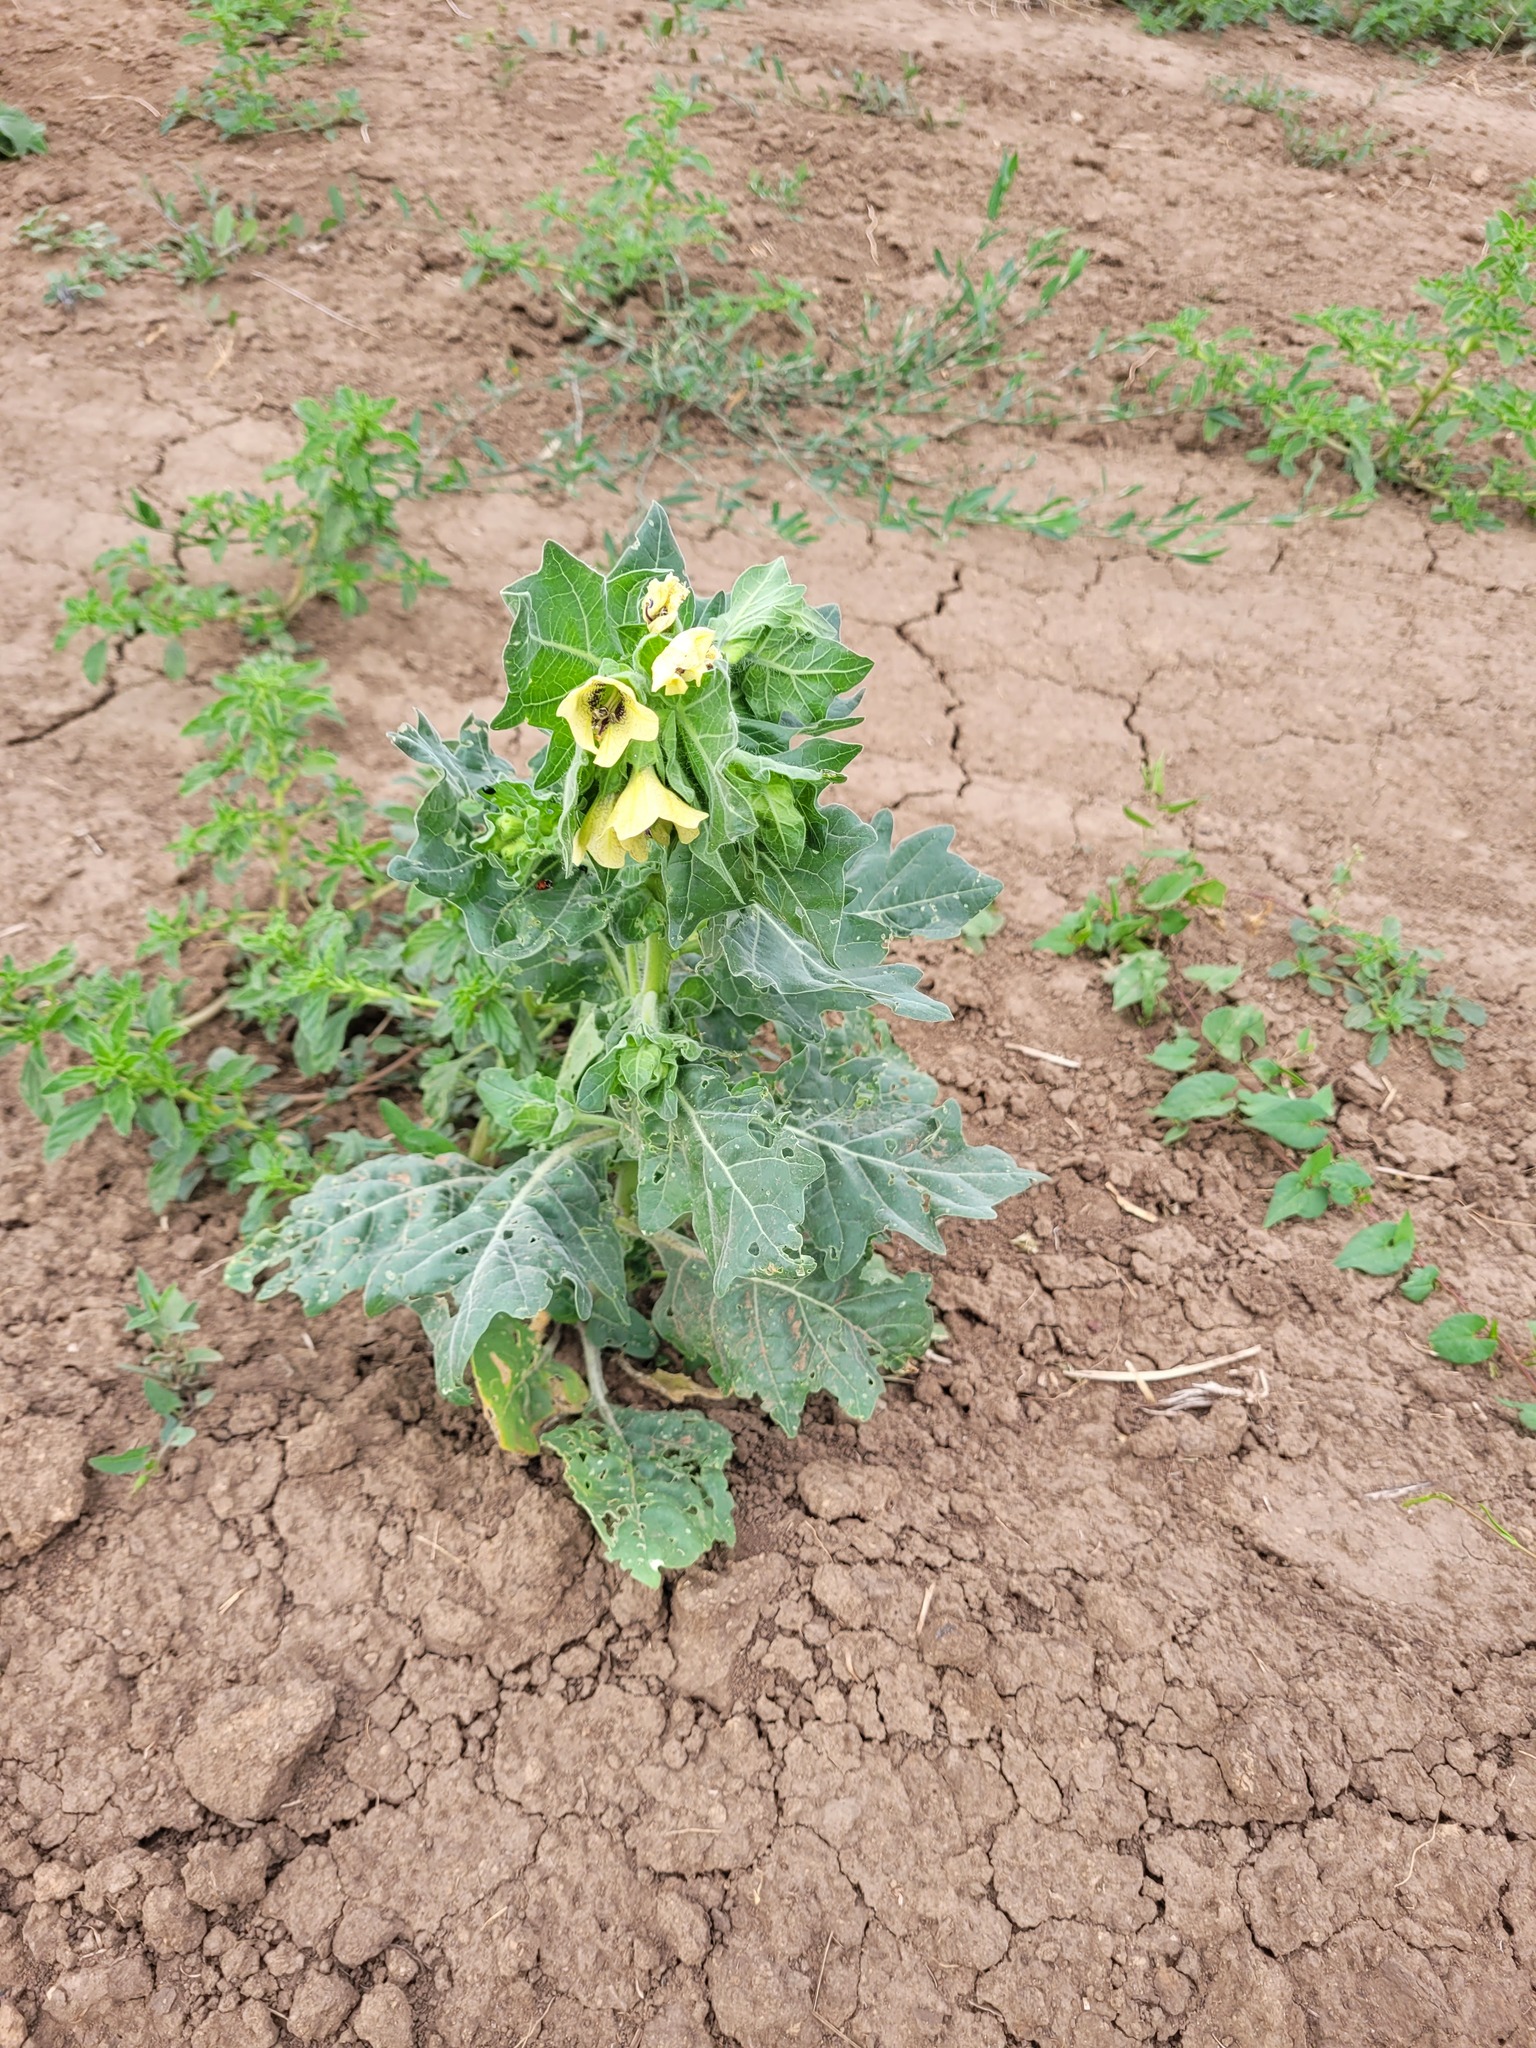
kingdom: Plantae
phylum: Tracheophyta
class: Magnoliopsida
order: Solanales
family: Solanaceae
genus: Hyoscyamus
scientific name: Hyoscyamus niger
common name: Henbane
